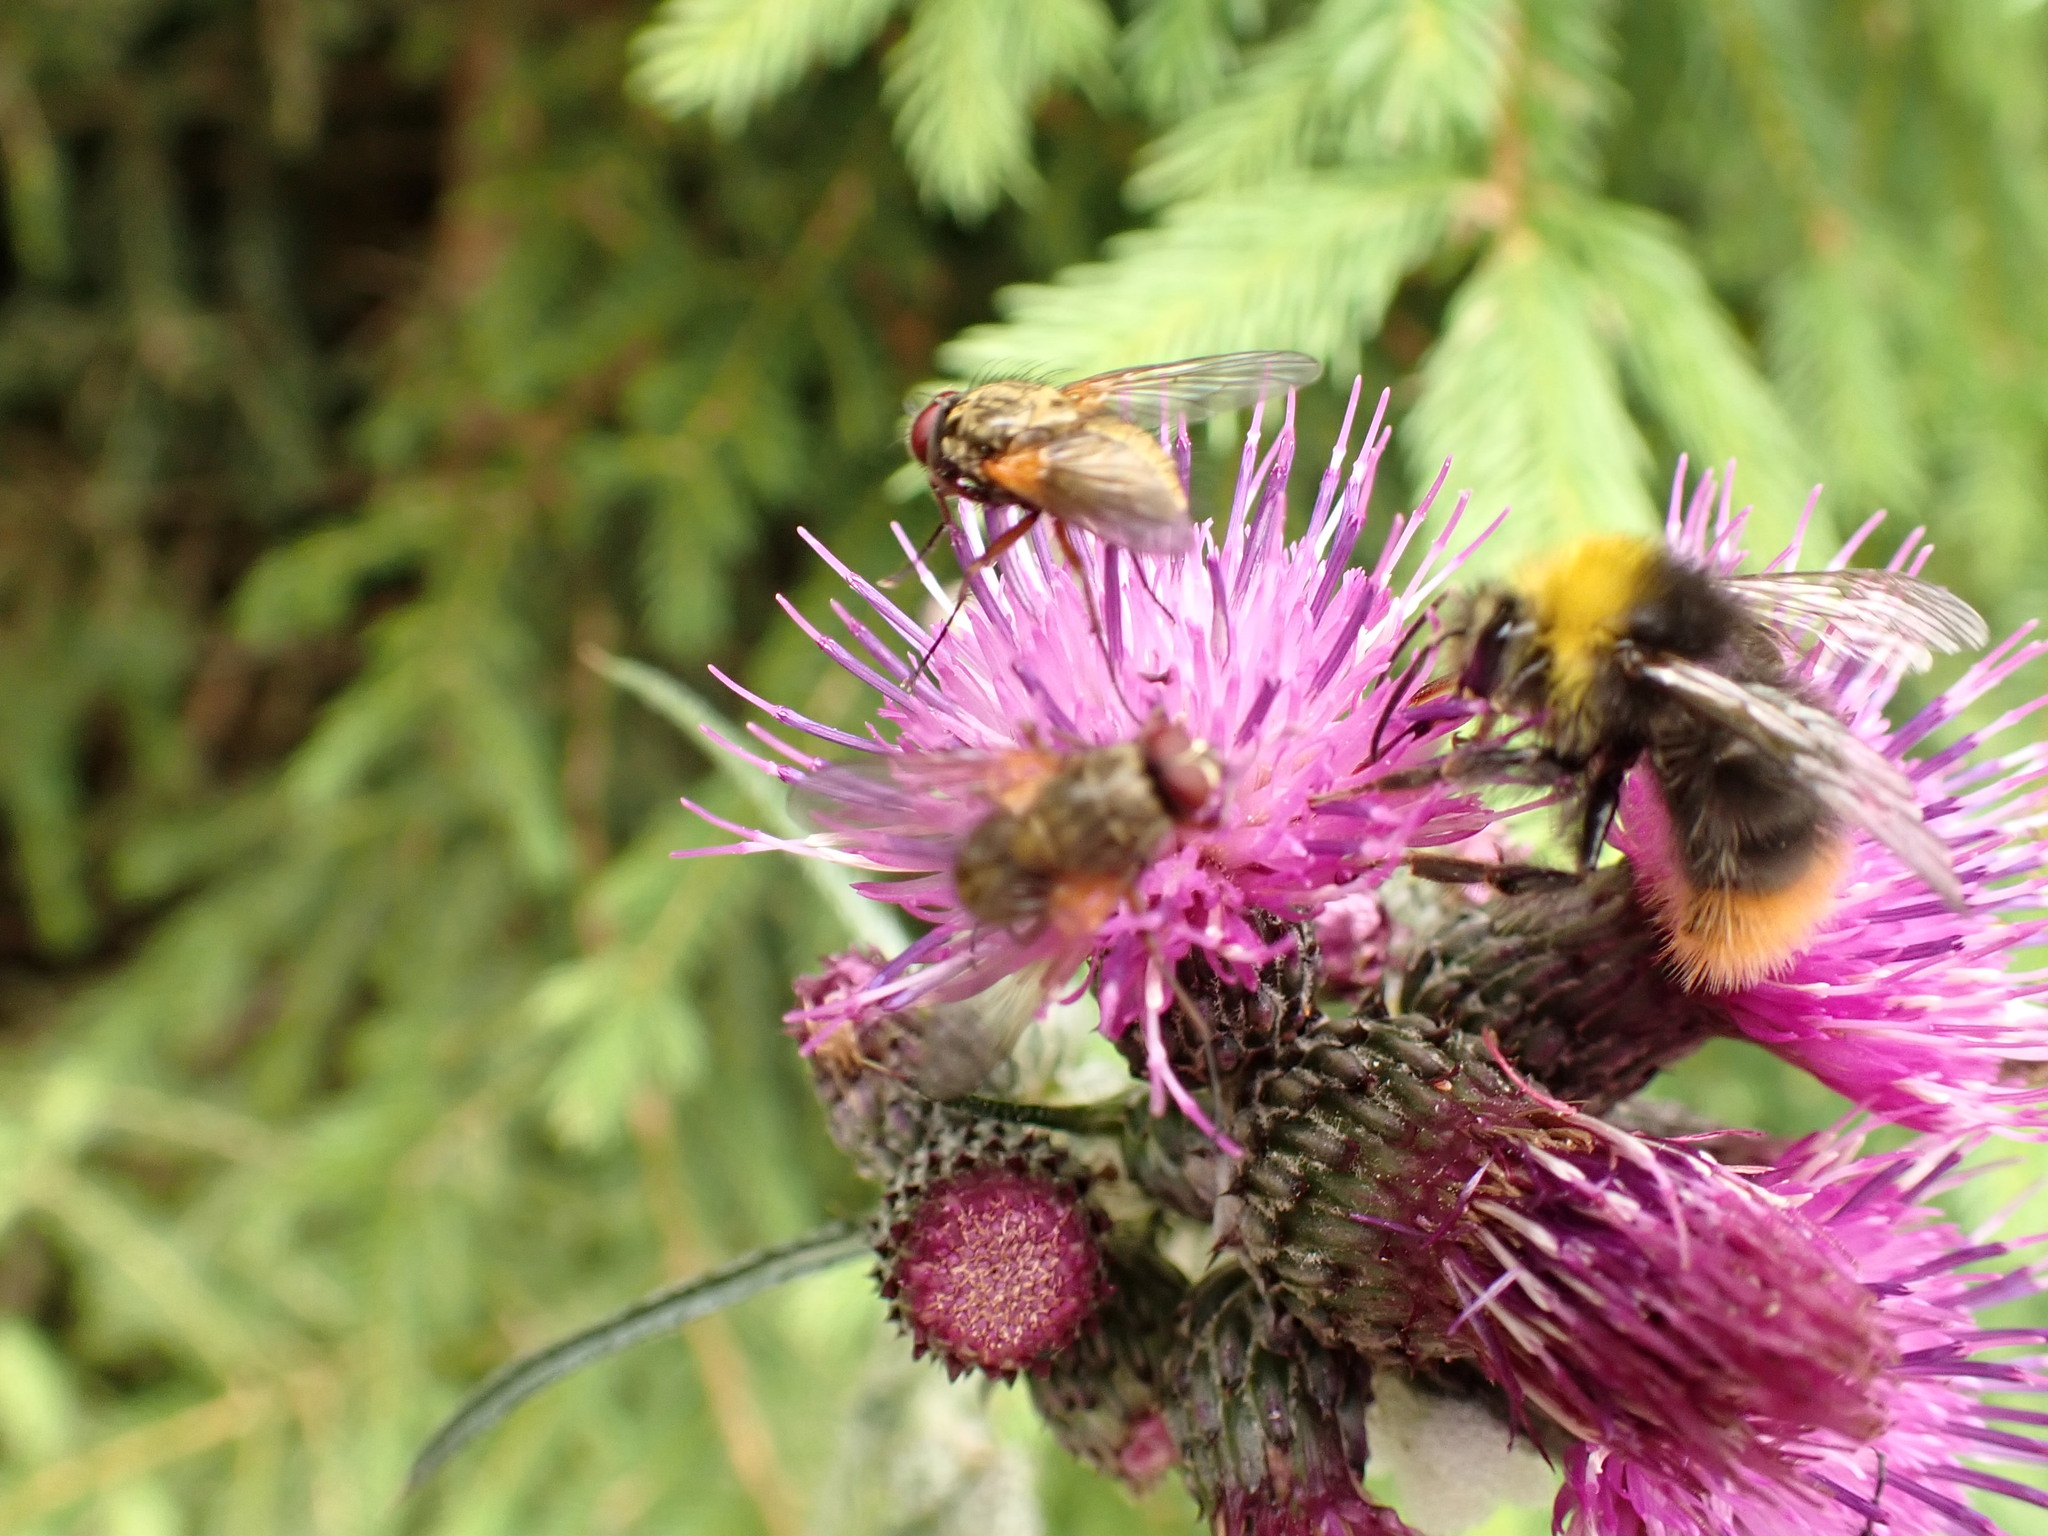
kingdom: Plantae
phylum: Tracheophyta
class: Magnoliopsida
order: Asterales
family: Asteraceae
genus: Cirsium
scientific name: Cirsium palustre
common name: Marsh thistle
